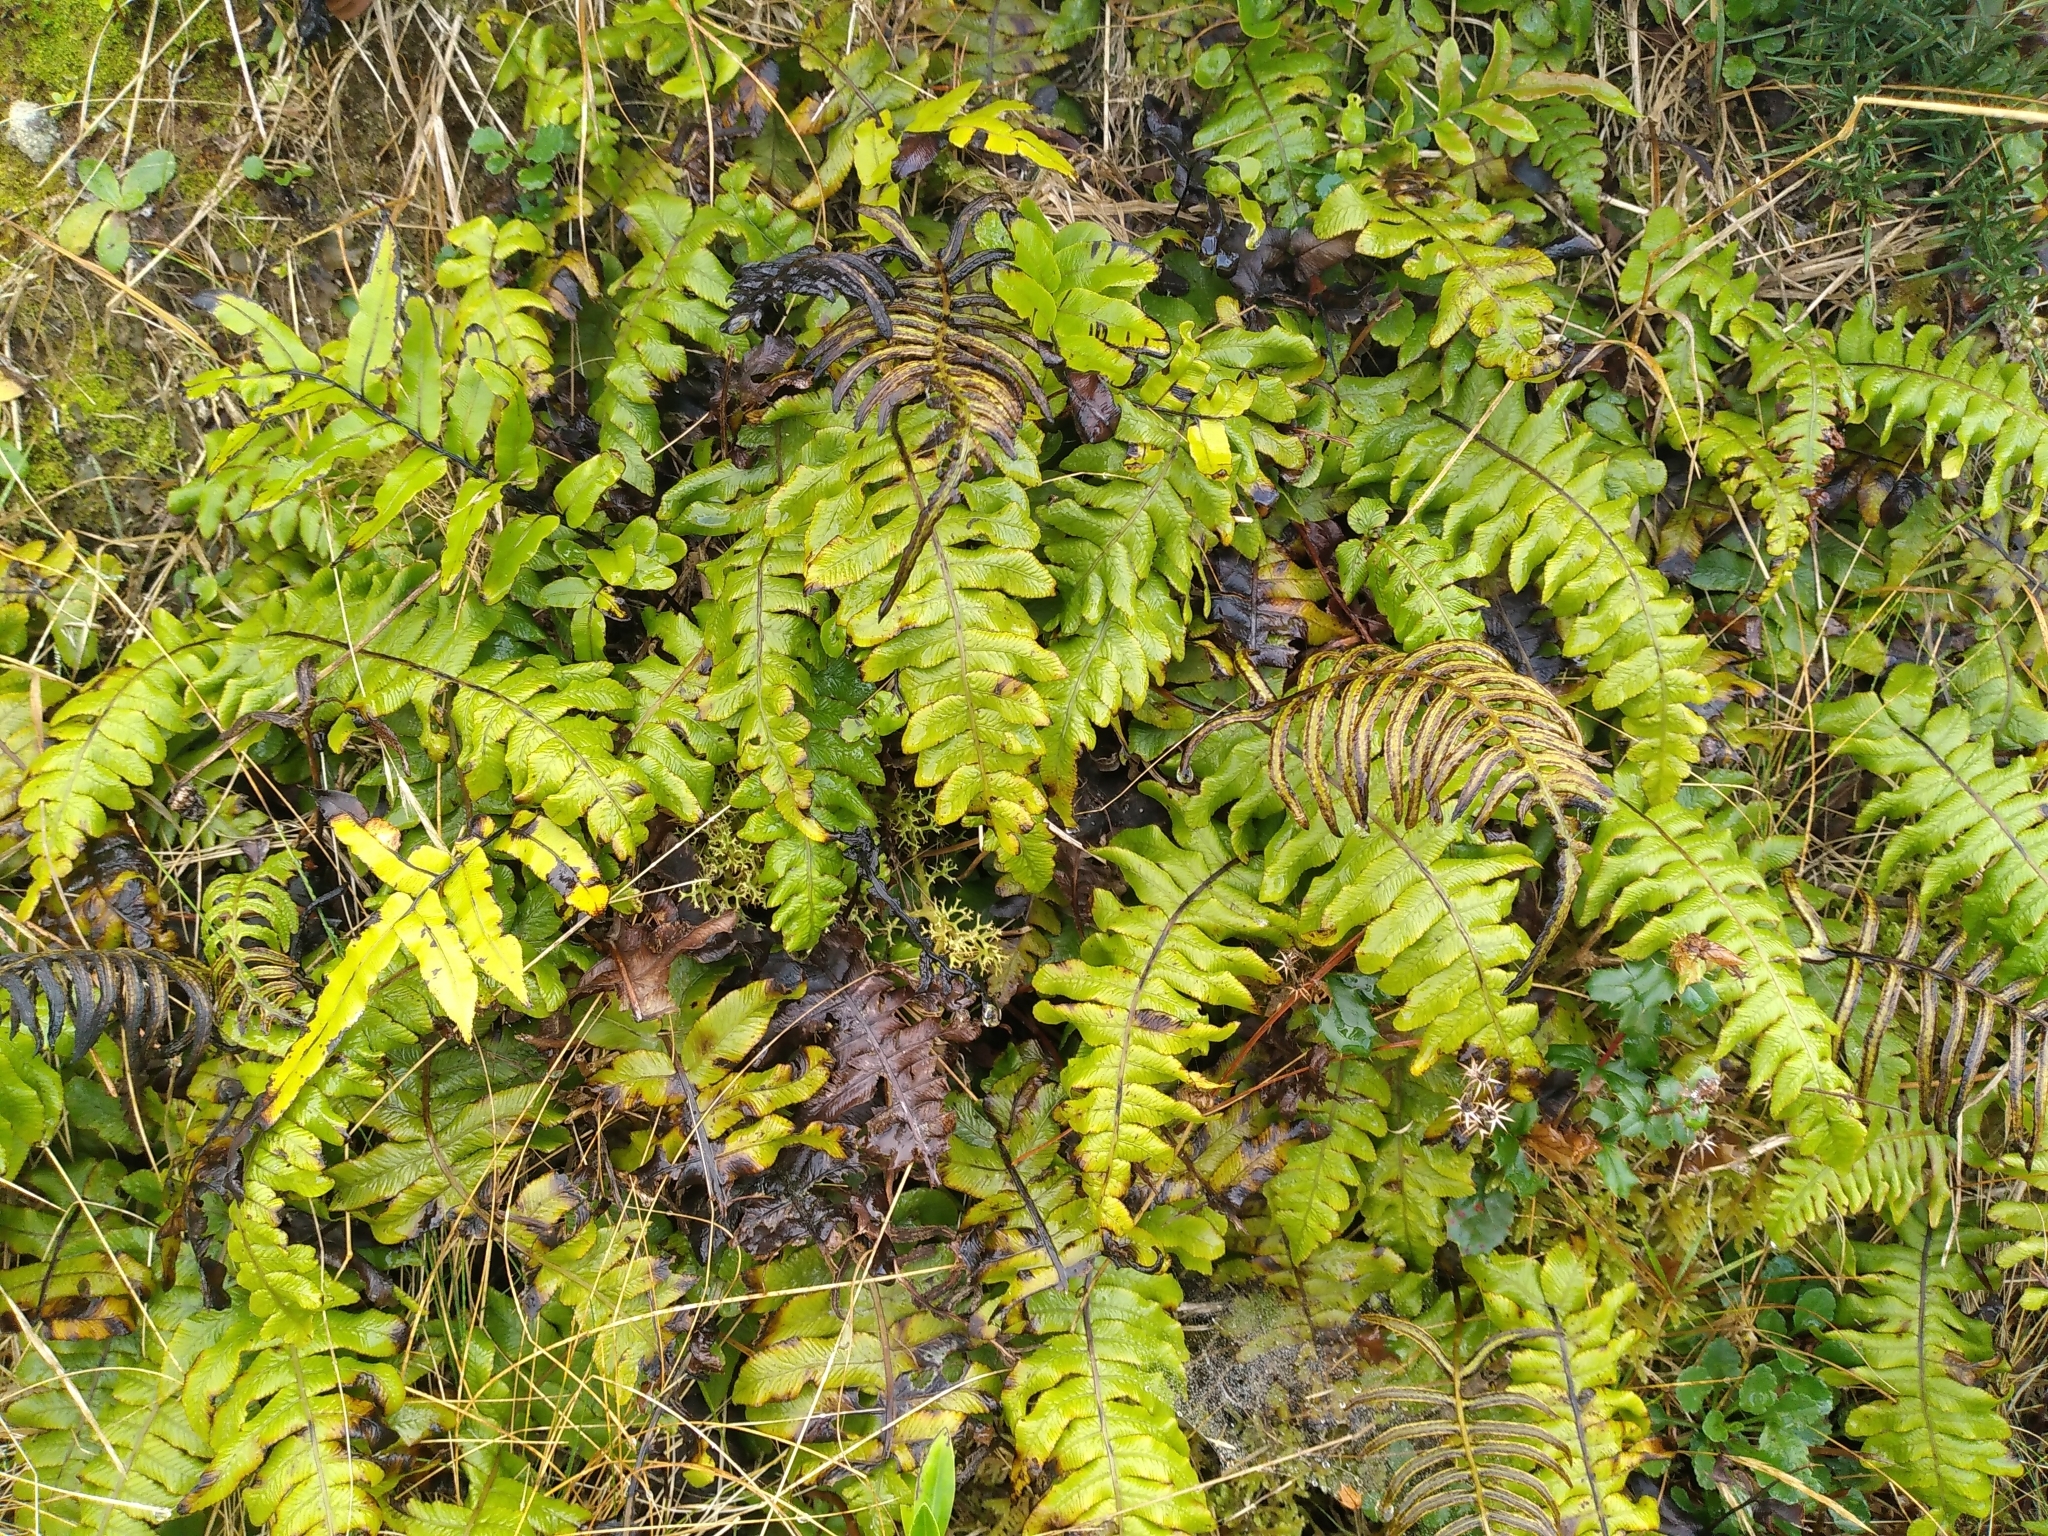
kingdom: Plantae
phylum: Tracheophyta
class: Polypodiopsida
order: Polypodiales
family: Blechnaceae
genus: Cranfillia
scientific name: Cranfillia deltoides
